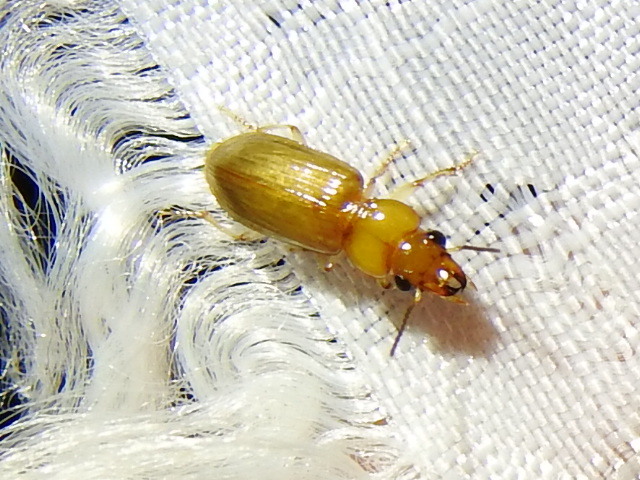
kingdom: Animalia
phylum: Arthropoda
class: Insecta
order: Coleoptera
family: Carabidae
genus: Pogonodaptus
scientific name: Pogonodaptus mexicanus
